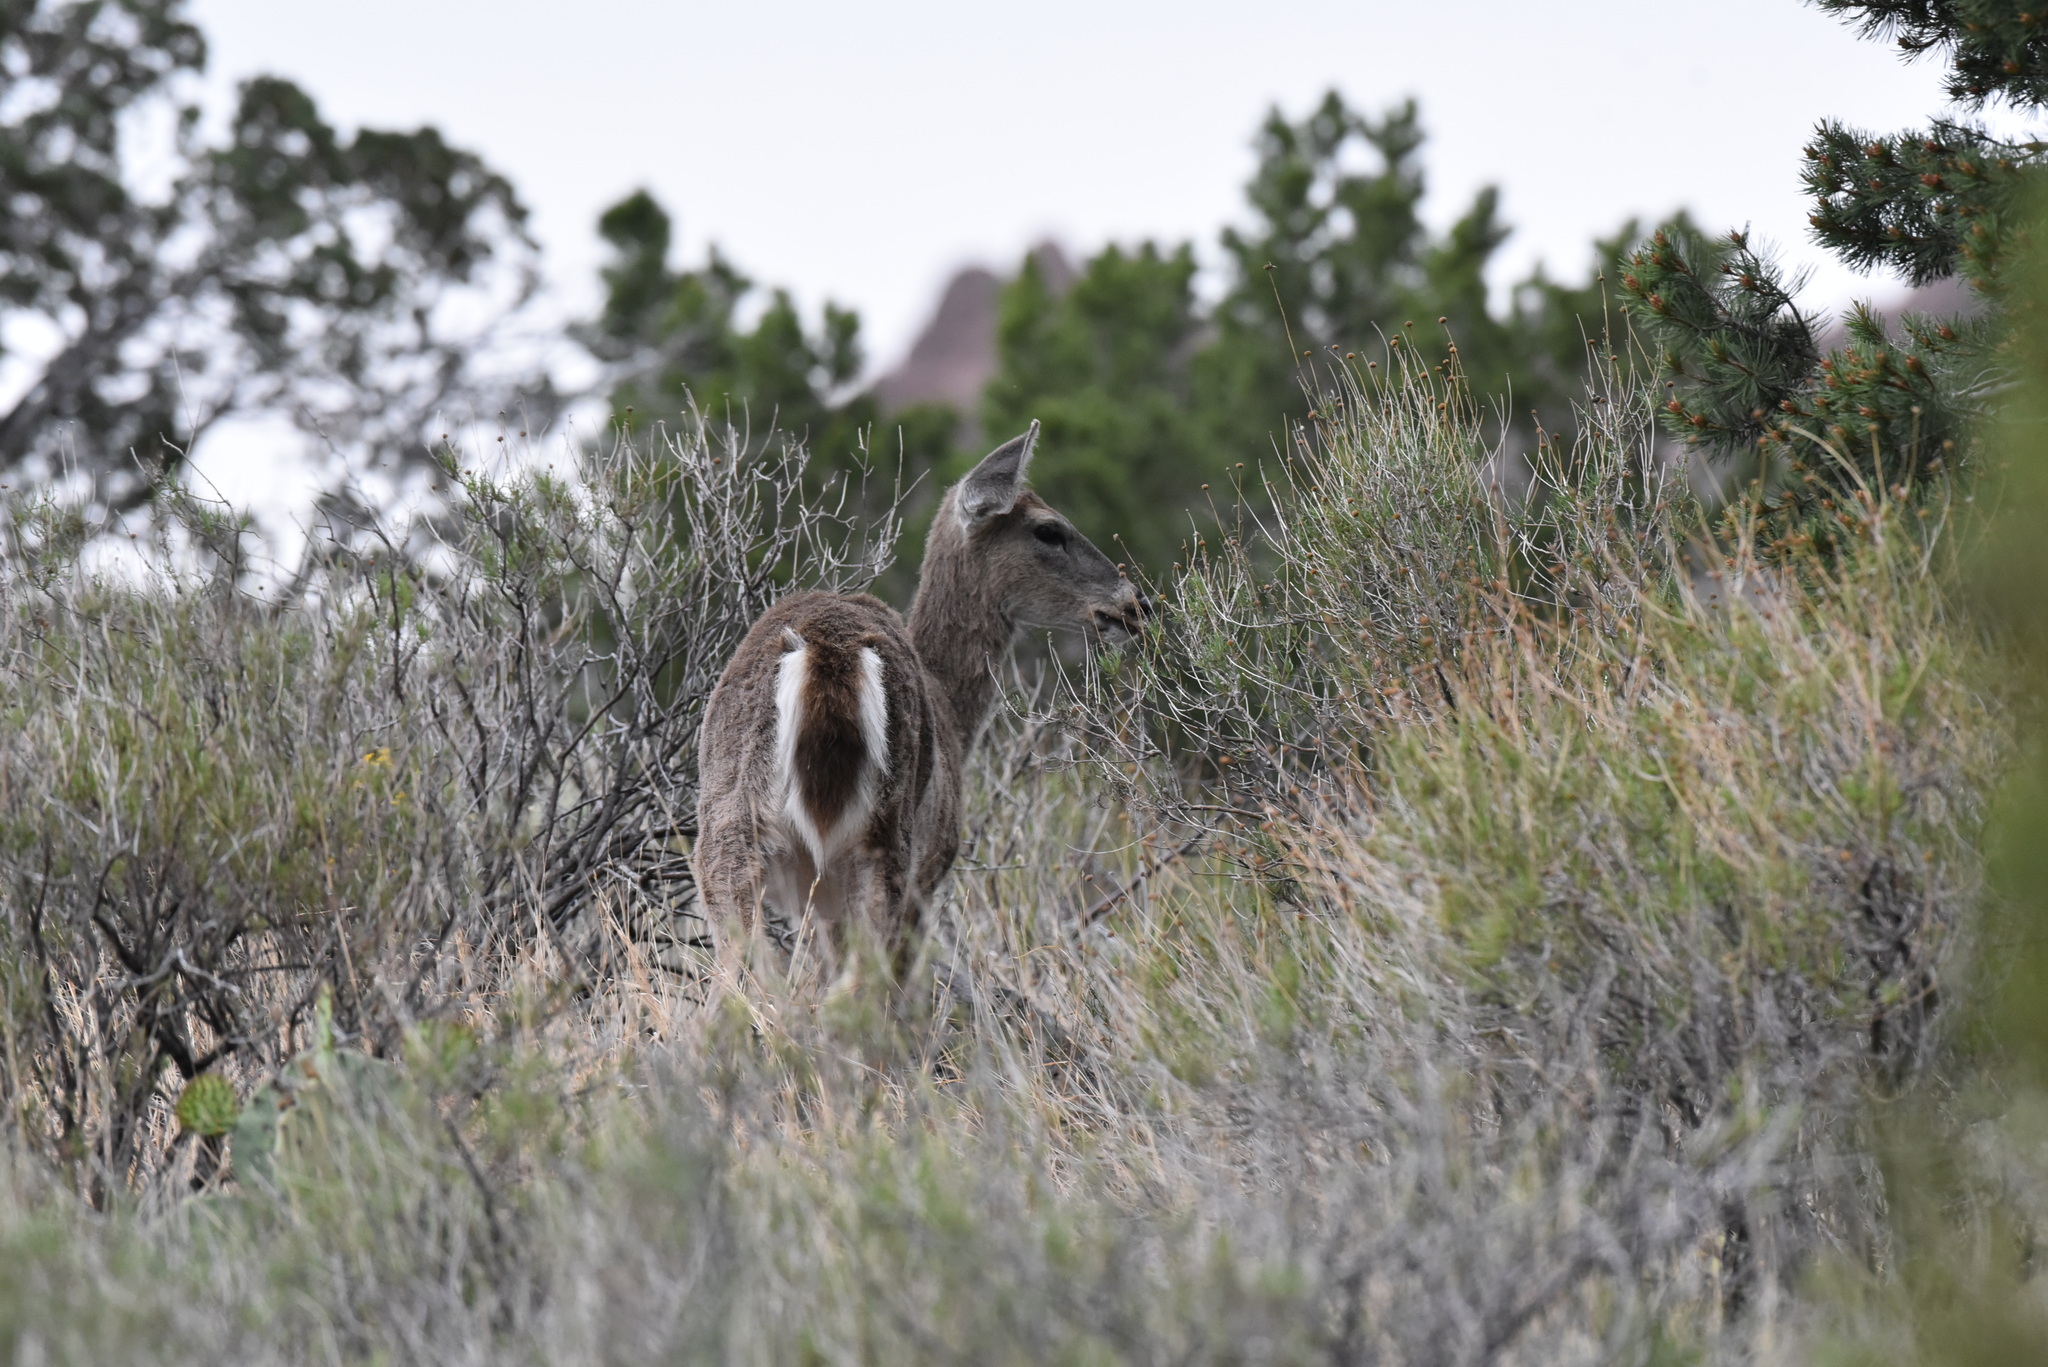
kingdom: Animalia
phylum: Chordata
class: Mammalia
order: Artiodactyla
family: Cervidae
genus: Odocoileus
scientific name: Odocoileus virginianus
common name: White-tailed deer
